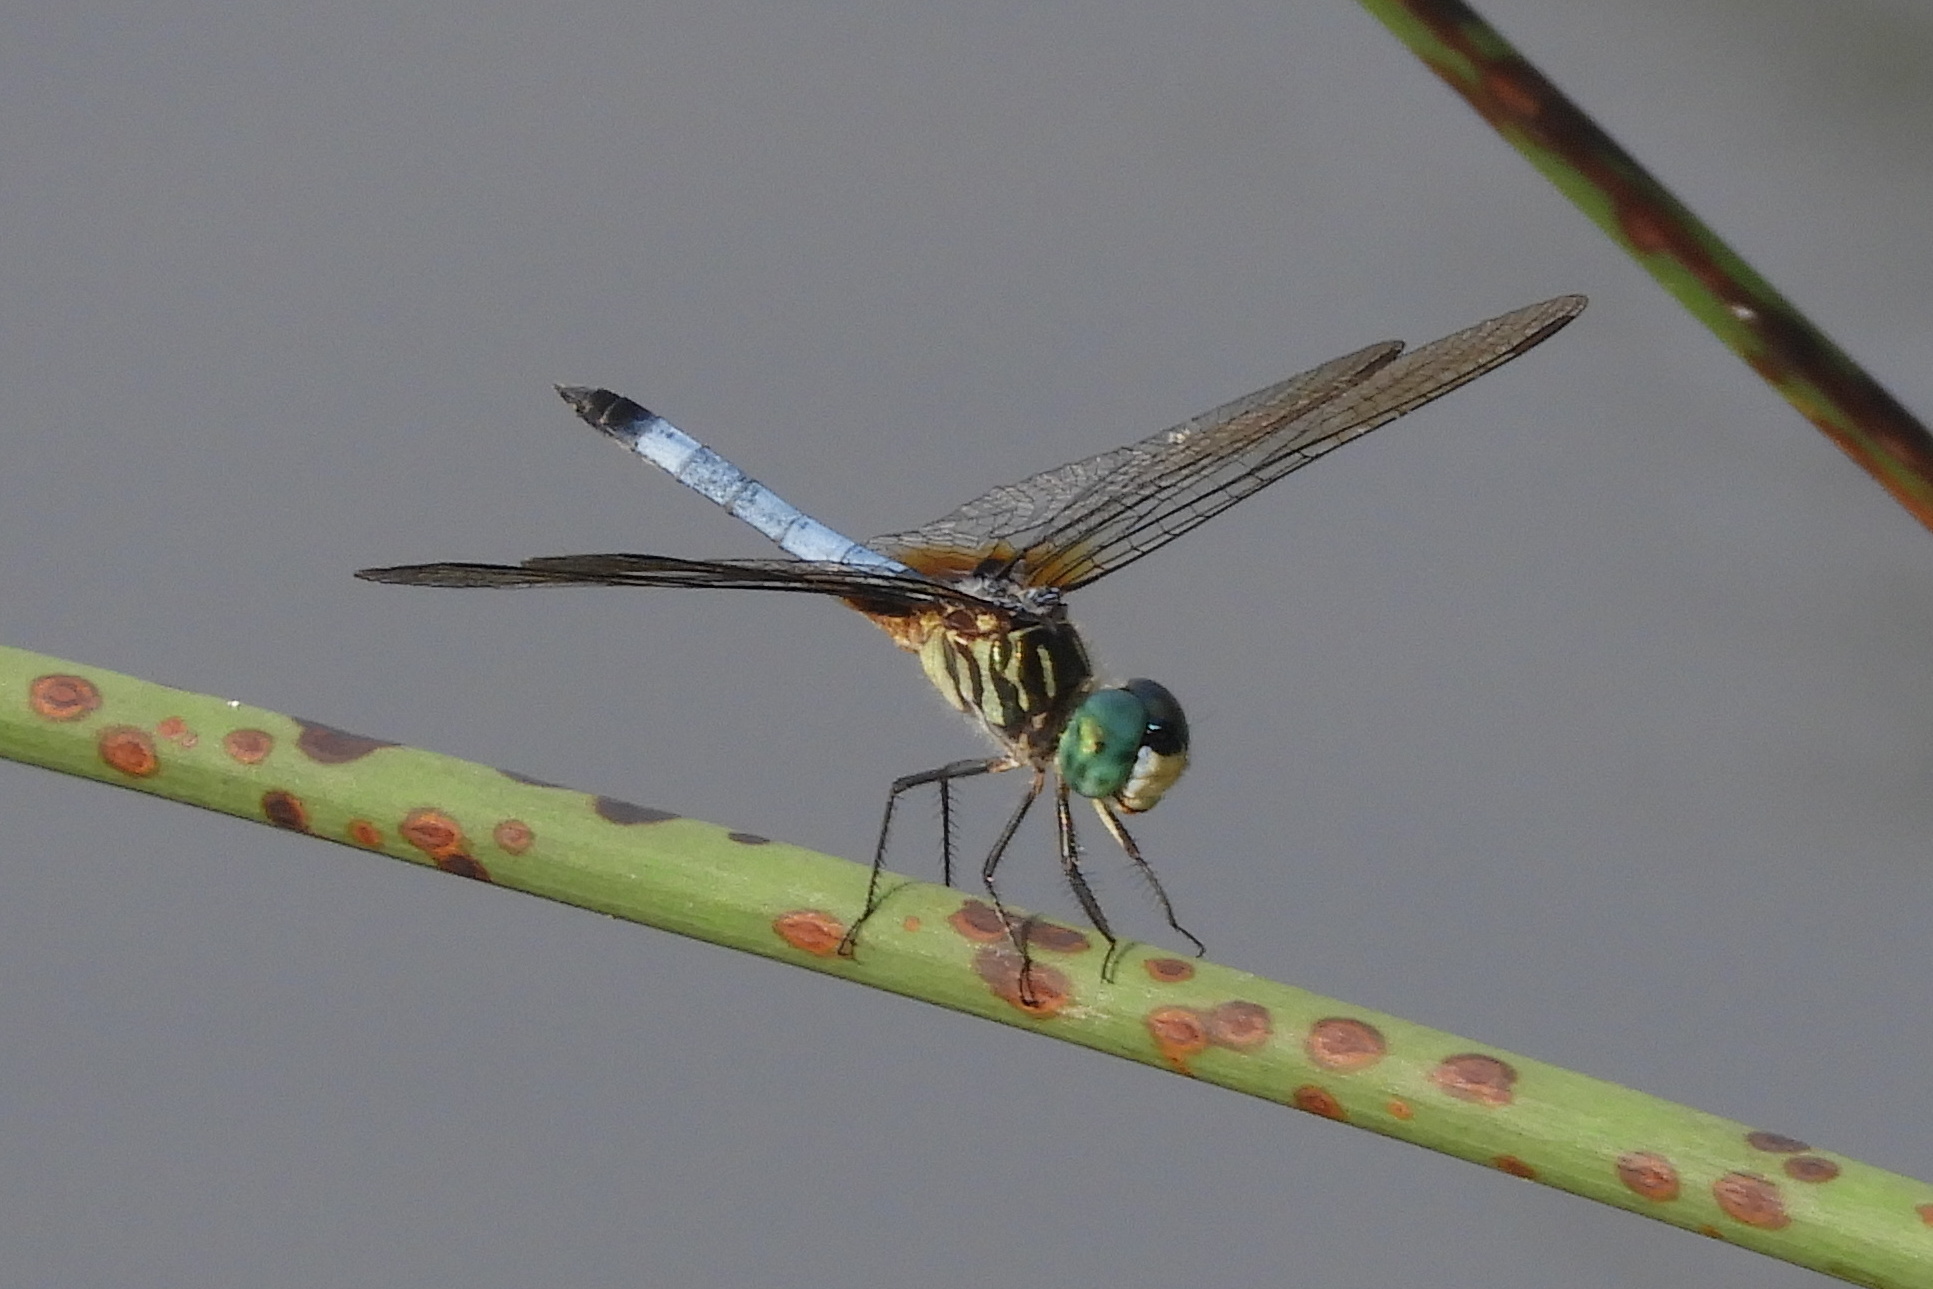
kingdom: Animalia
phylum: Arthropoda
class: Insecta
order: Odonata
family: Libellulidae
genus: Pachydiplax
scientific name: Pachydiplax longipennis
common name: Blue dasher
